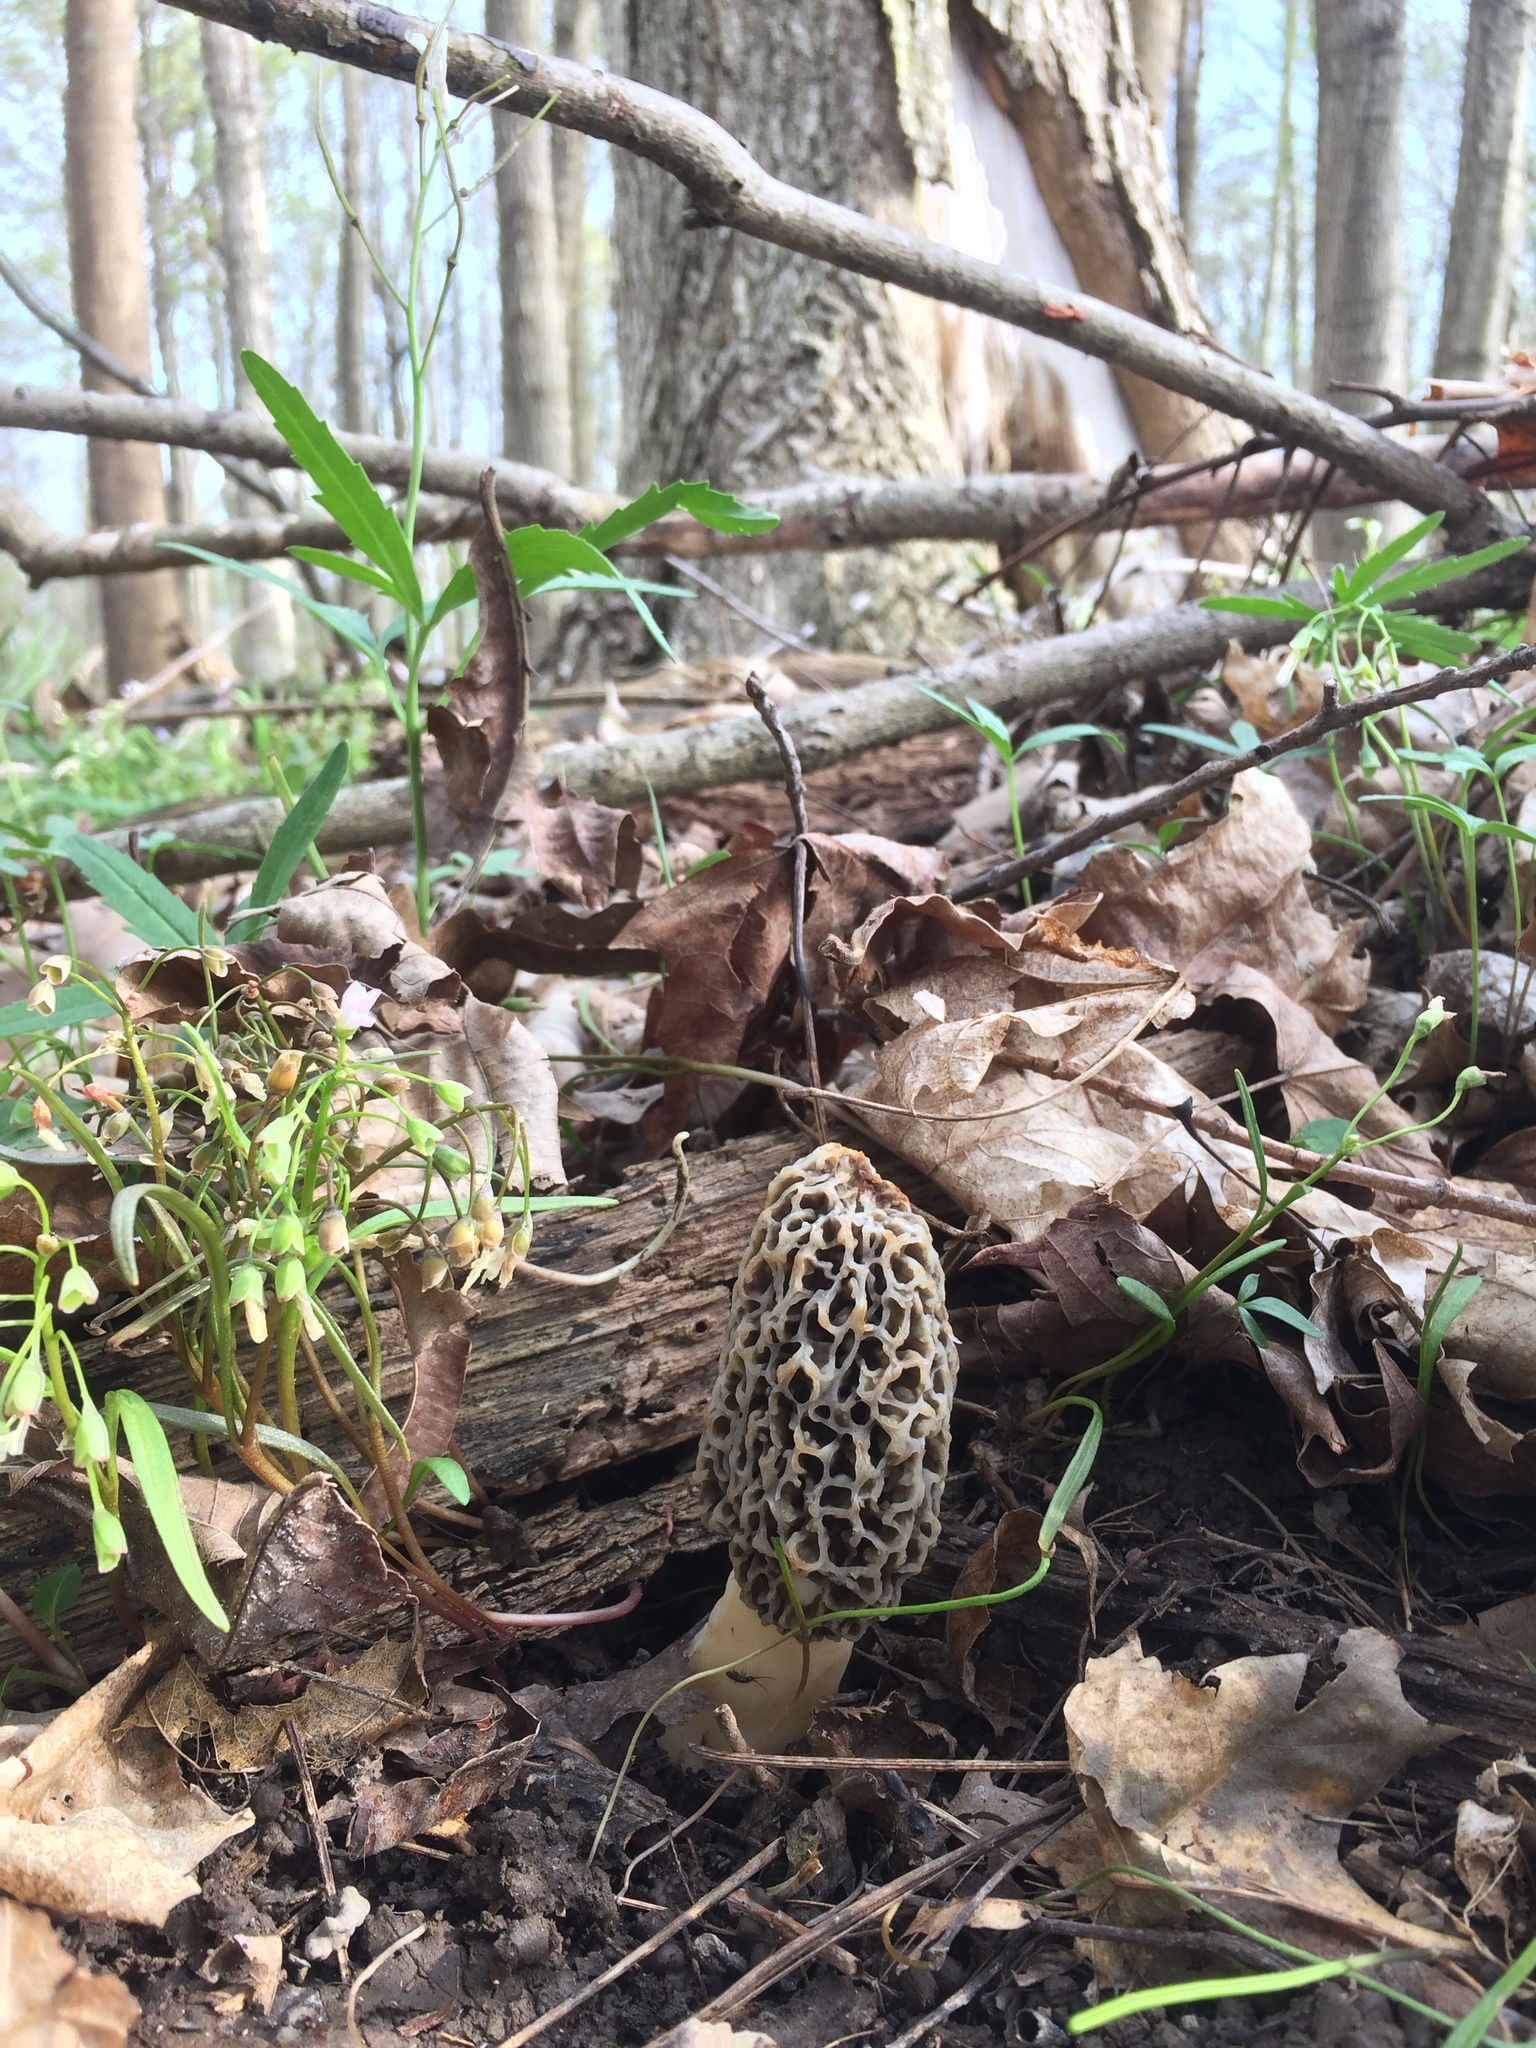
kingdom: Fungi
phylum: Ascomycota
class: Pezizomycetes
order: Pezizales
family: Morchellaceae
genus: Morchella
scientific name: Morchella americana
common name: White morel
